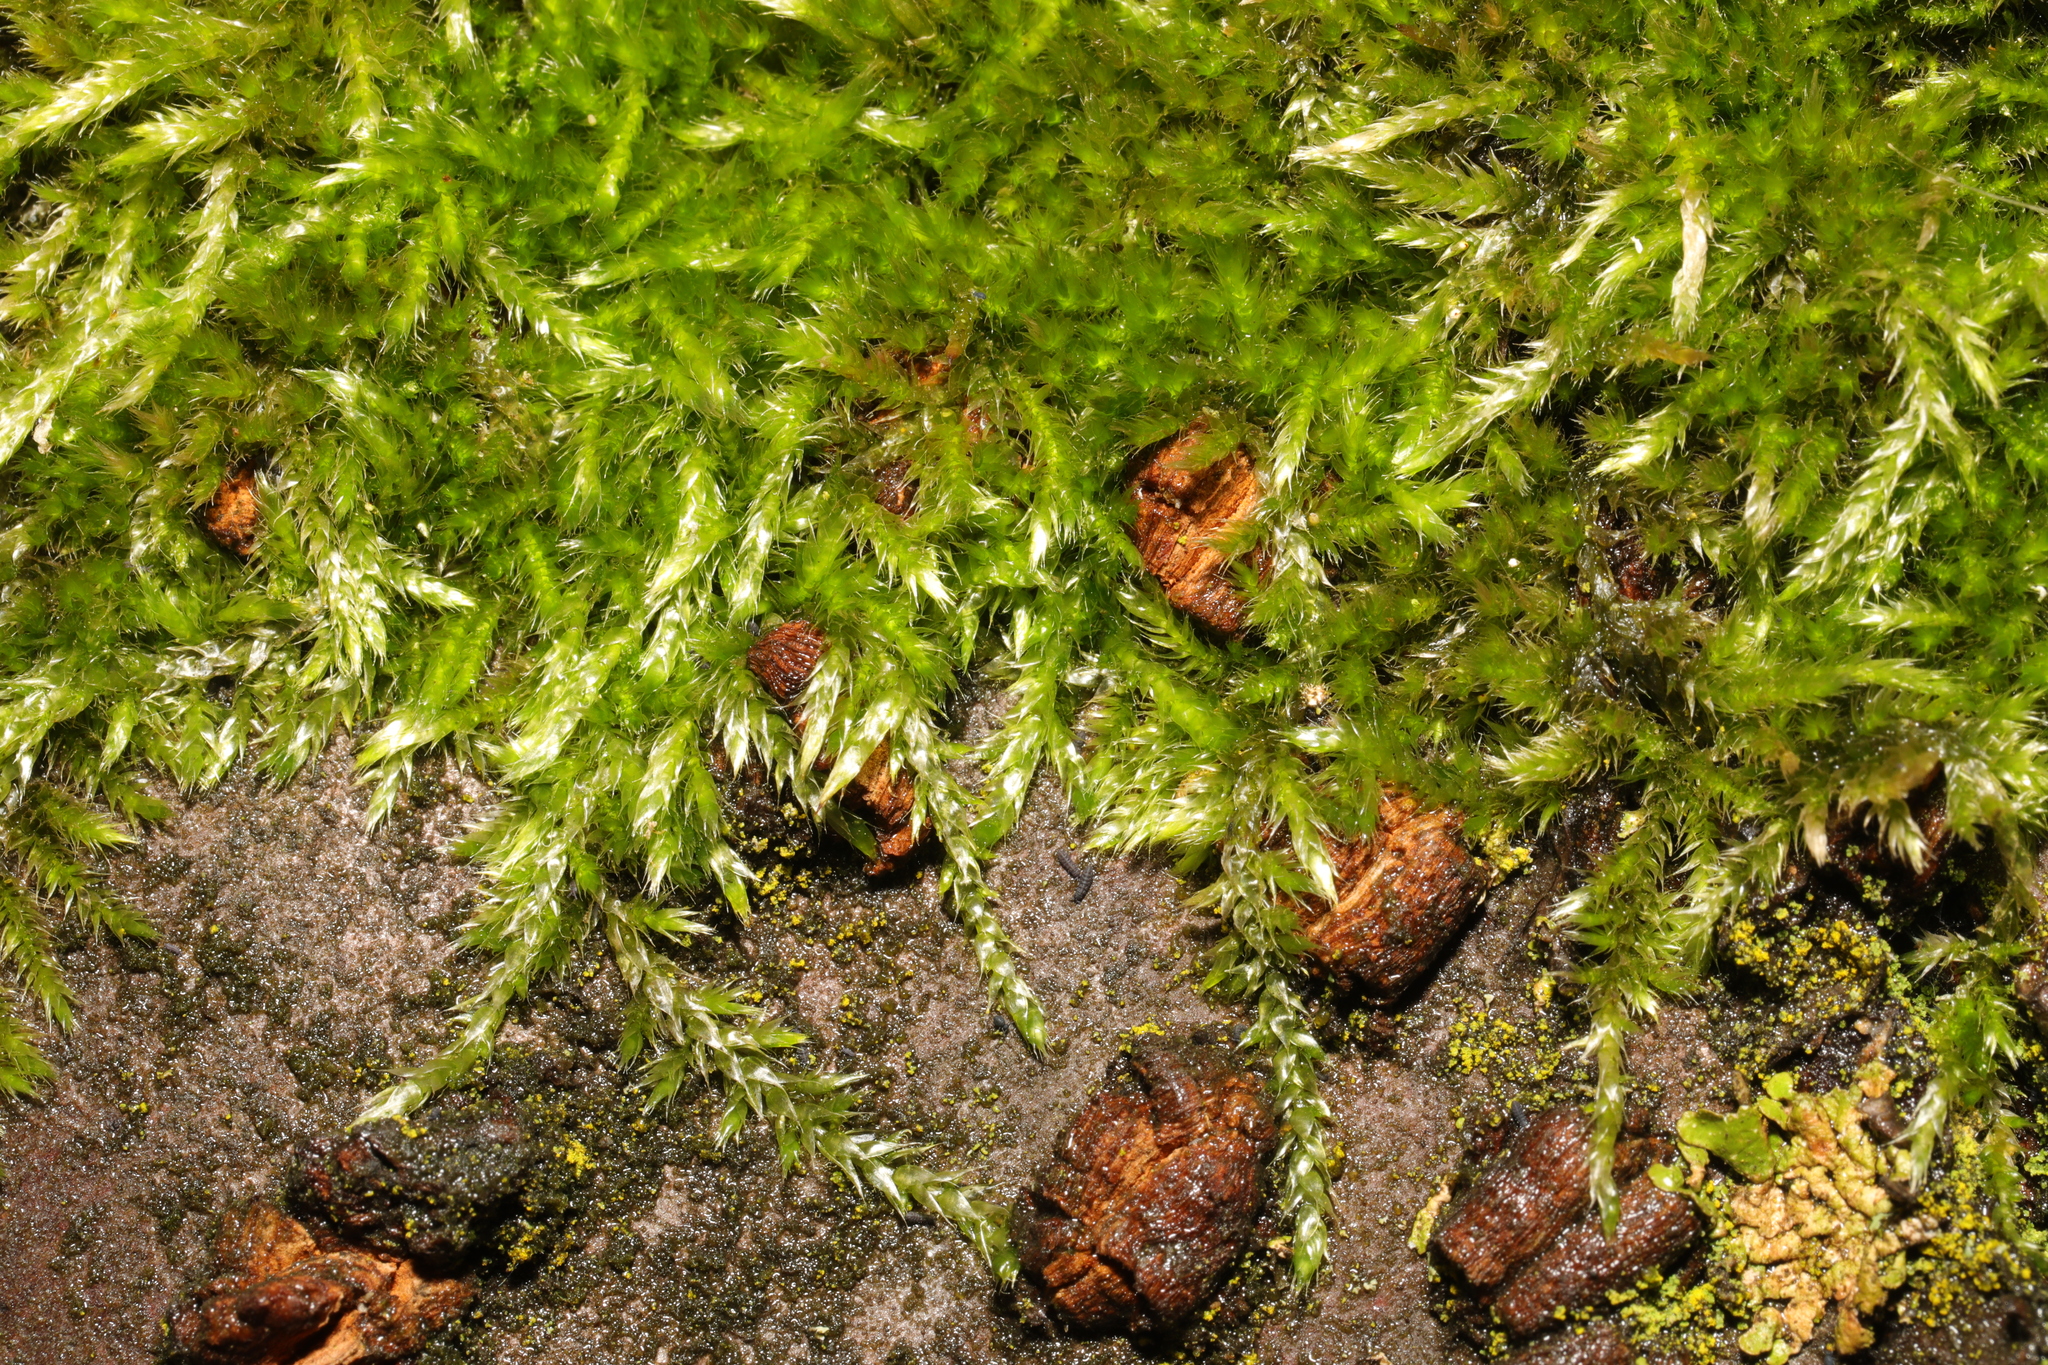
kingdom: Plantae
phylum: Bryophyta
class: Bryopsida
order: Hypnales
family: Brachytheciaceae
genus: Brachythecium
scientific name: Brachythecium rutabulum
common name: Rough-stalked feather-moss
